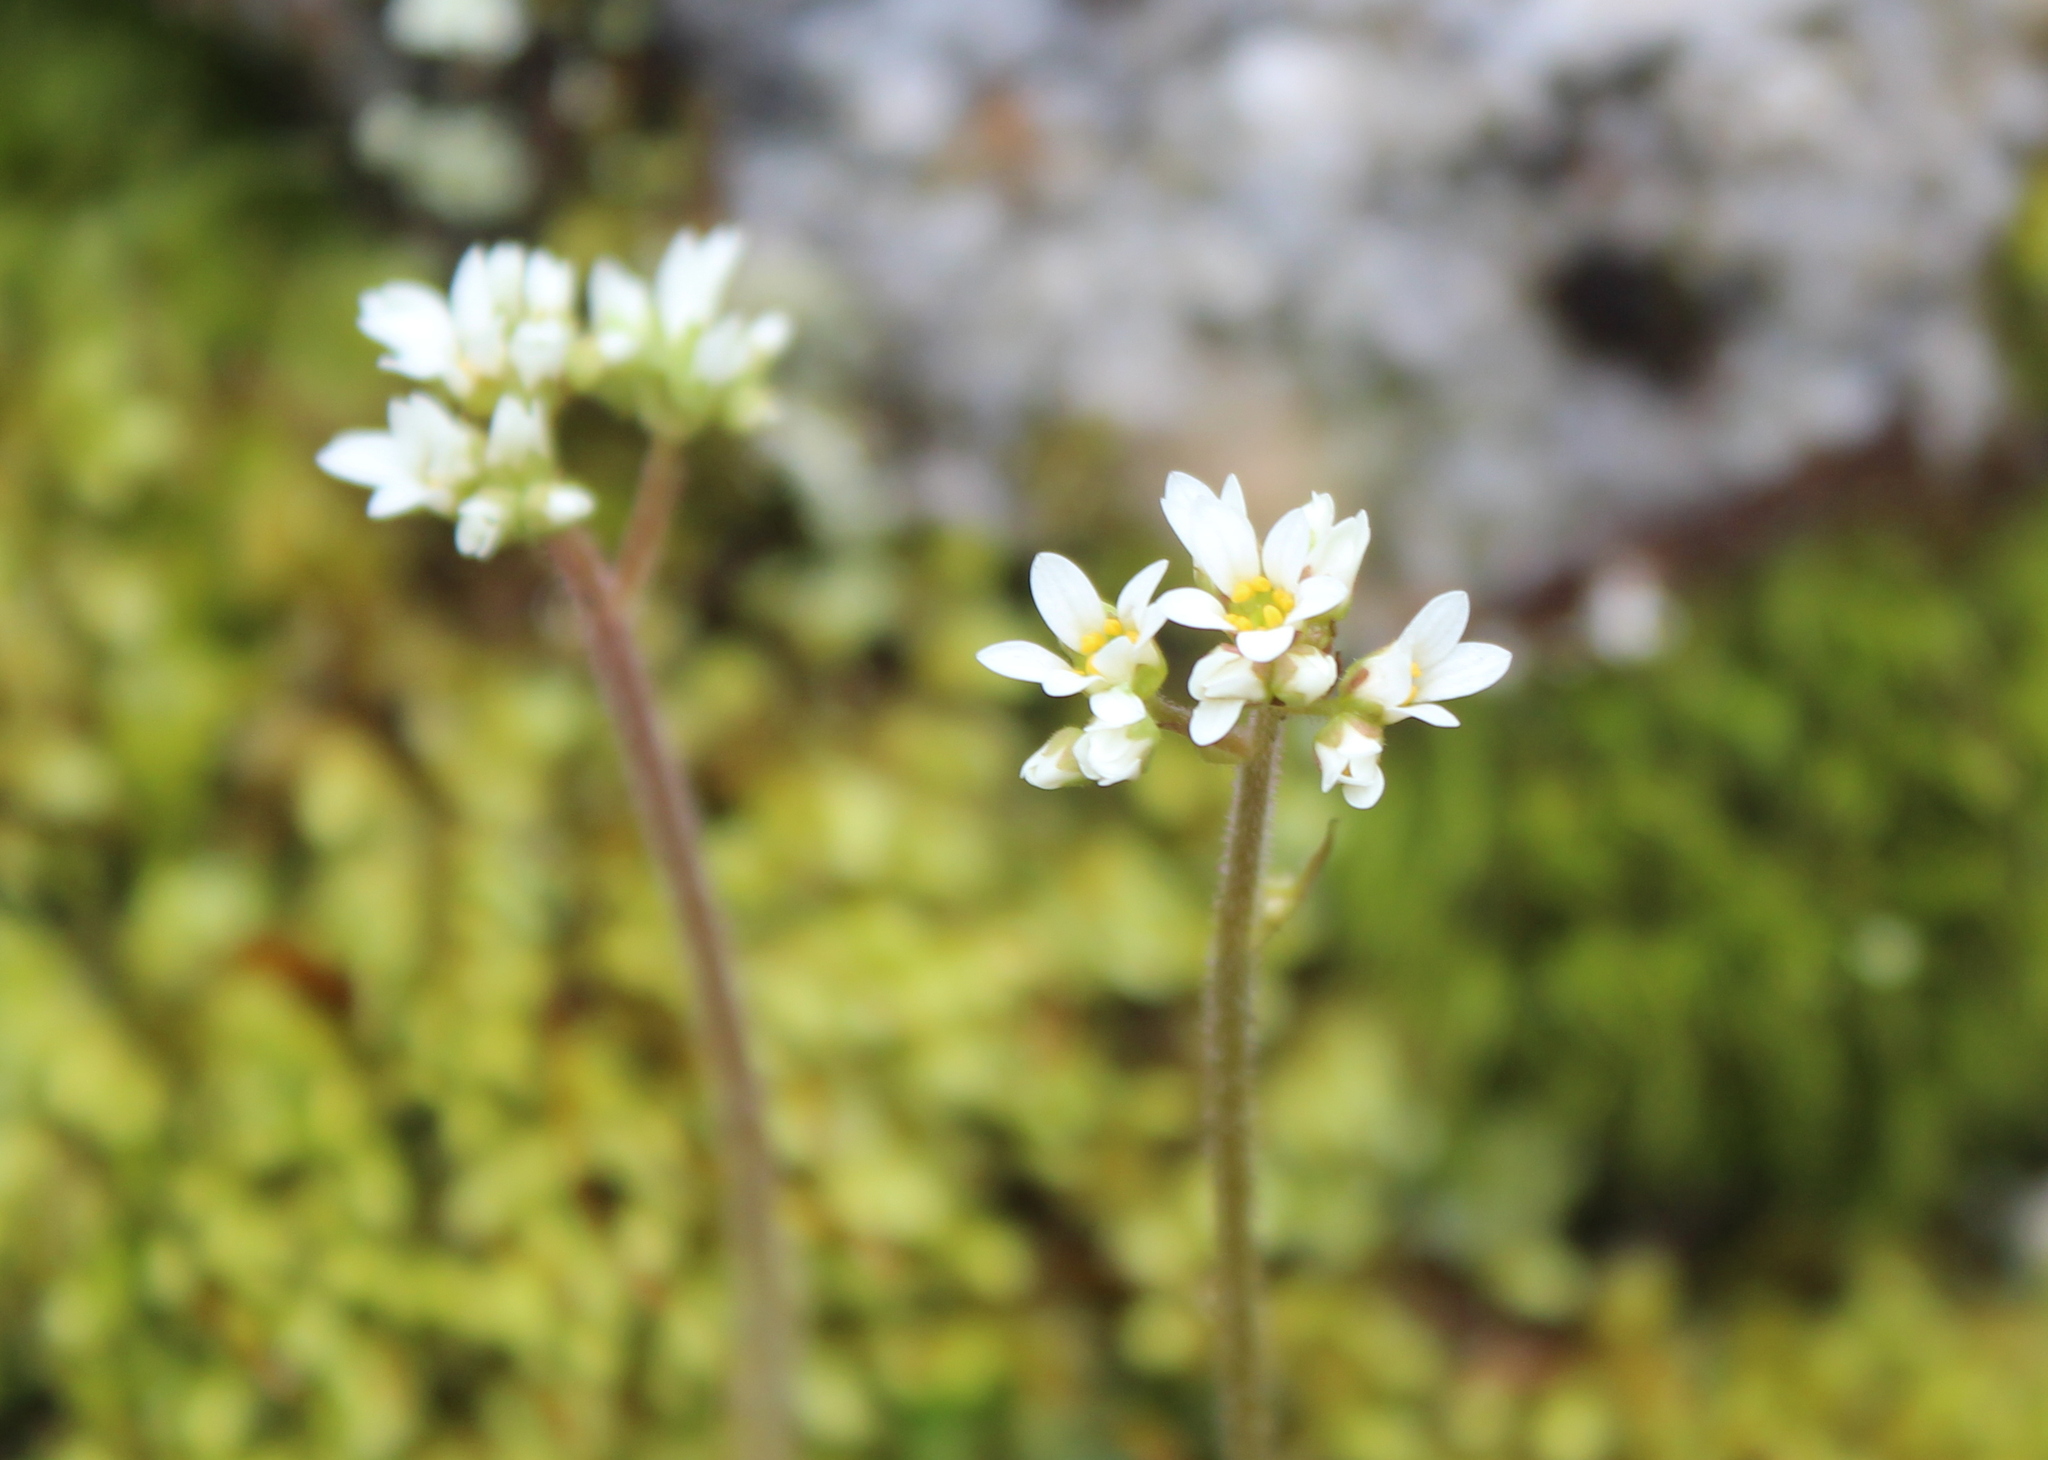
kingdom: Plantae
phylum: Tracheophyta
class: Magnoliopsida
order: Saxifragales
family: Saxifragaceae
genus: Micranthes
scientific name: Micranthes virginiensis
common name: Early saxifrage
